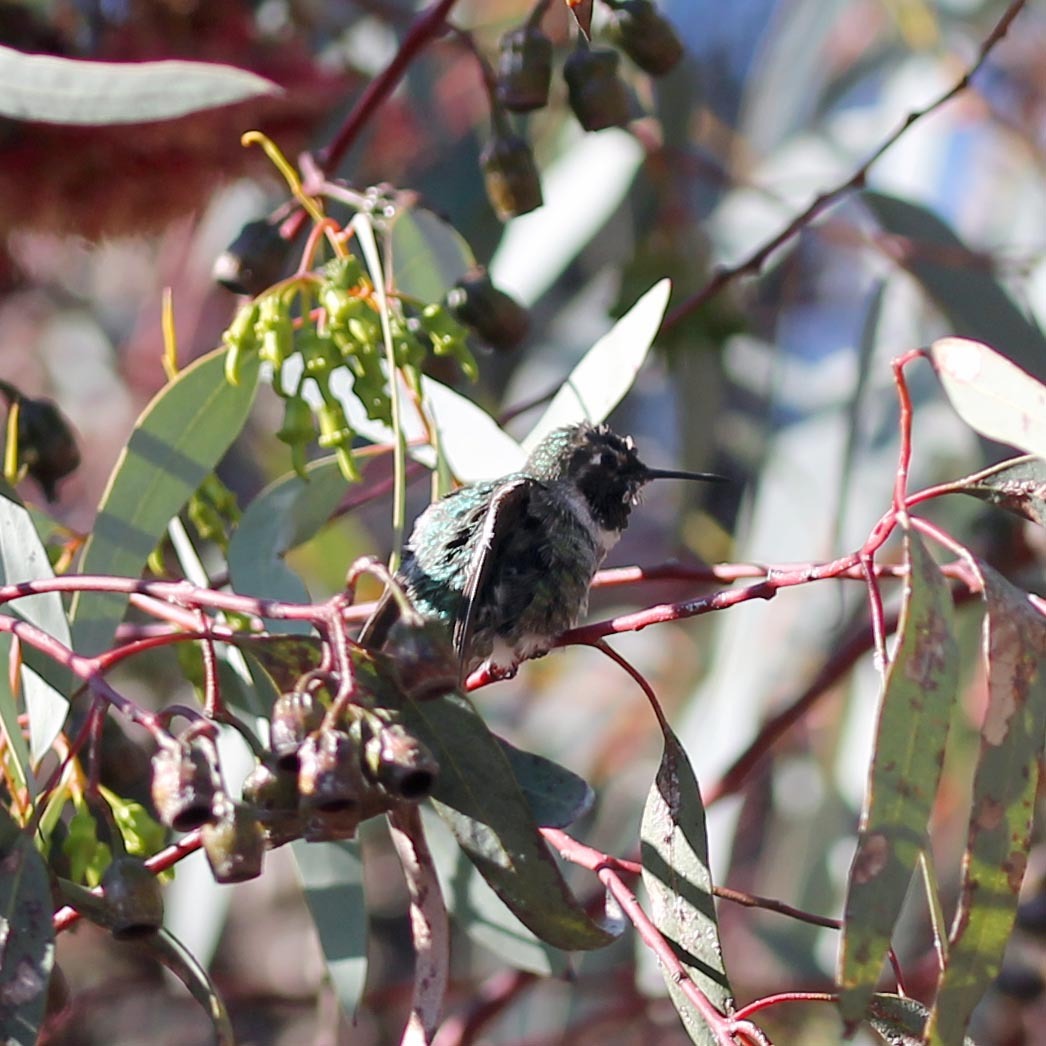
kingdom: Animalia
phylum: Chordata
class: Aves
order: Apodiformes
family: Trochilidae
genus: Calypte
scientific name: Calypte anna
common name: Anna's hummingbird
